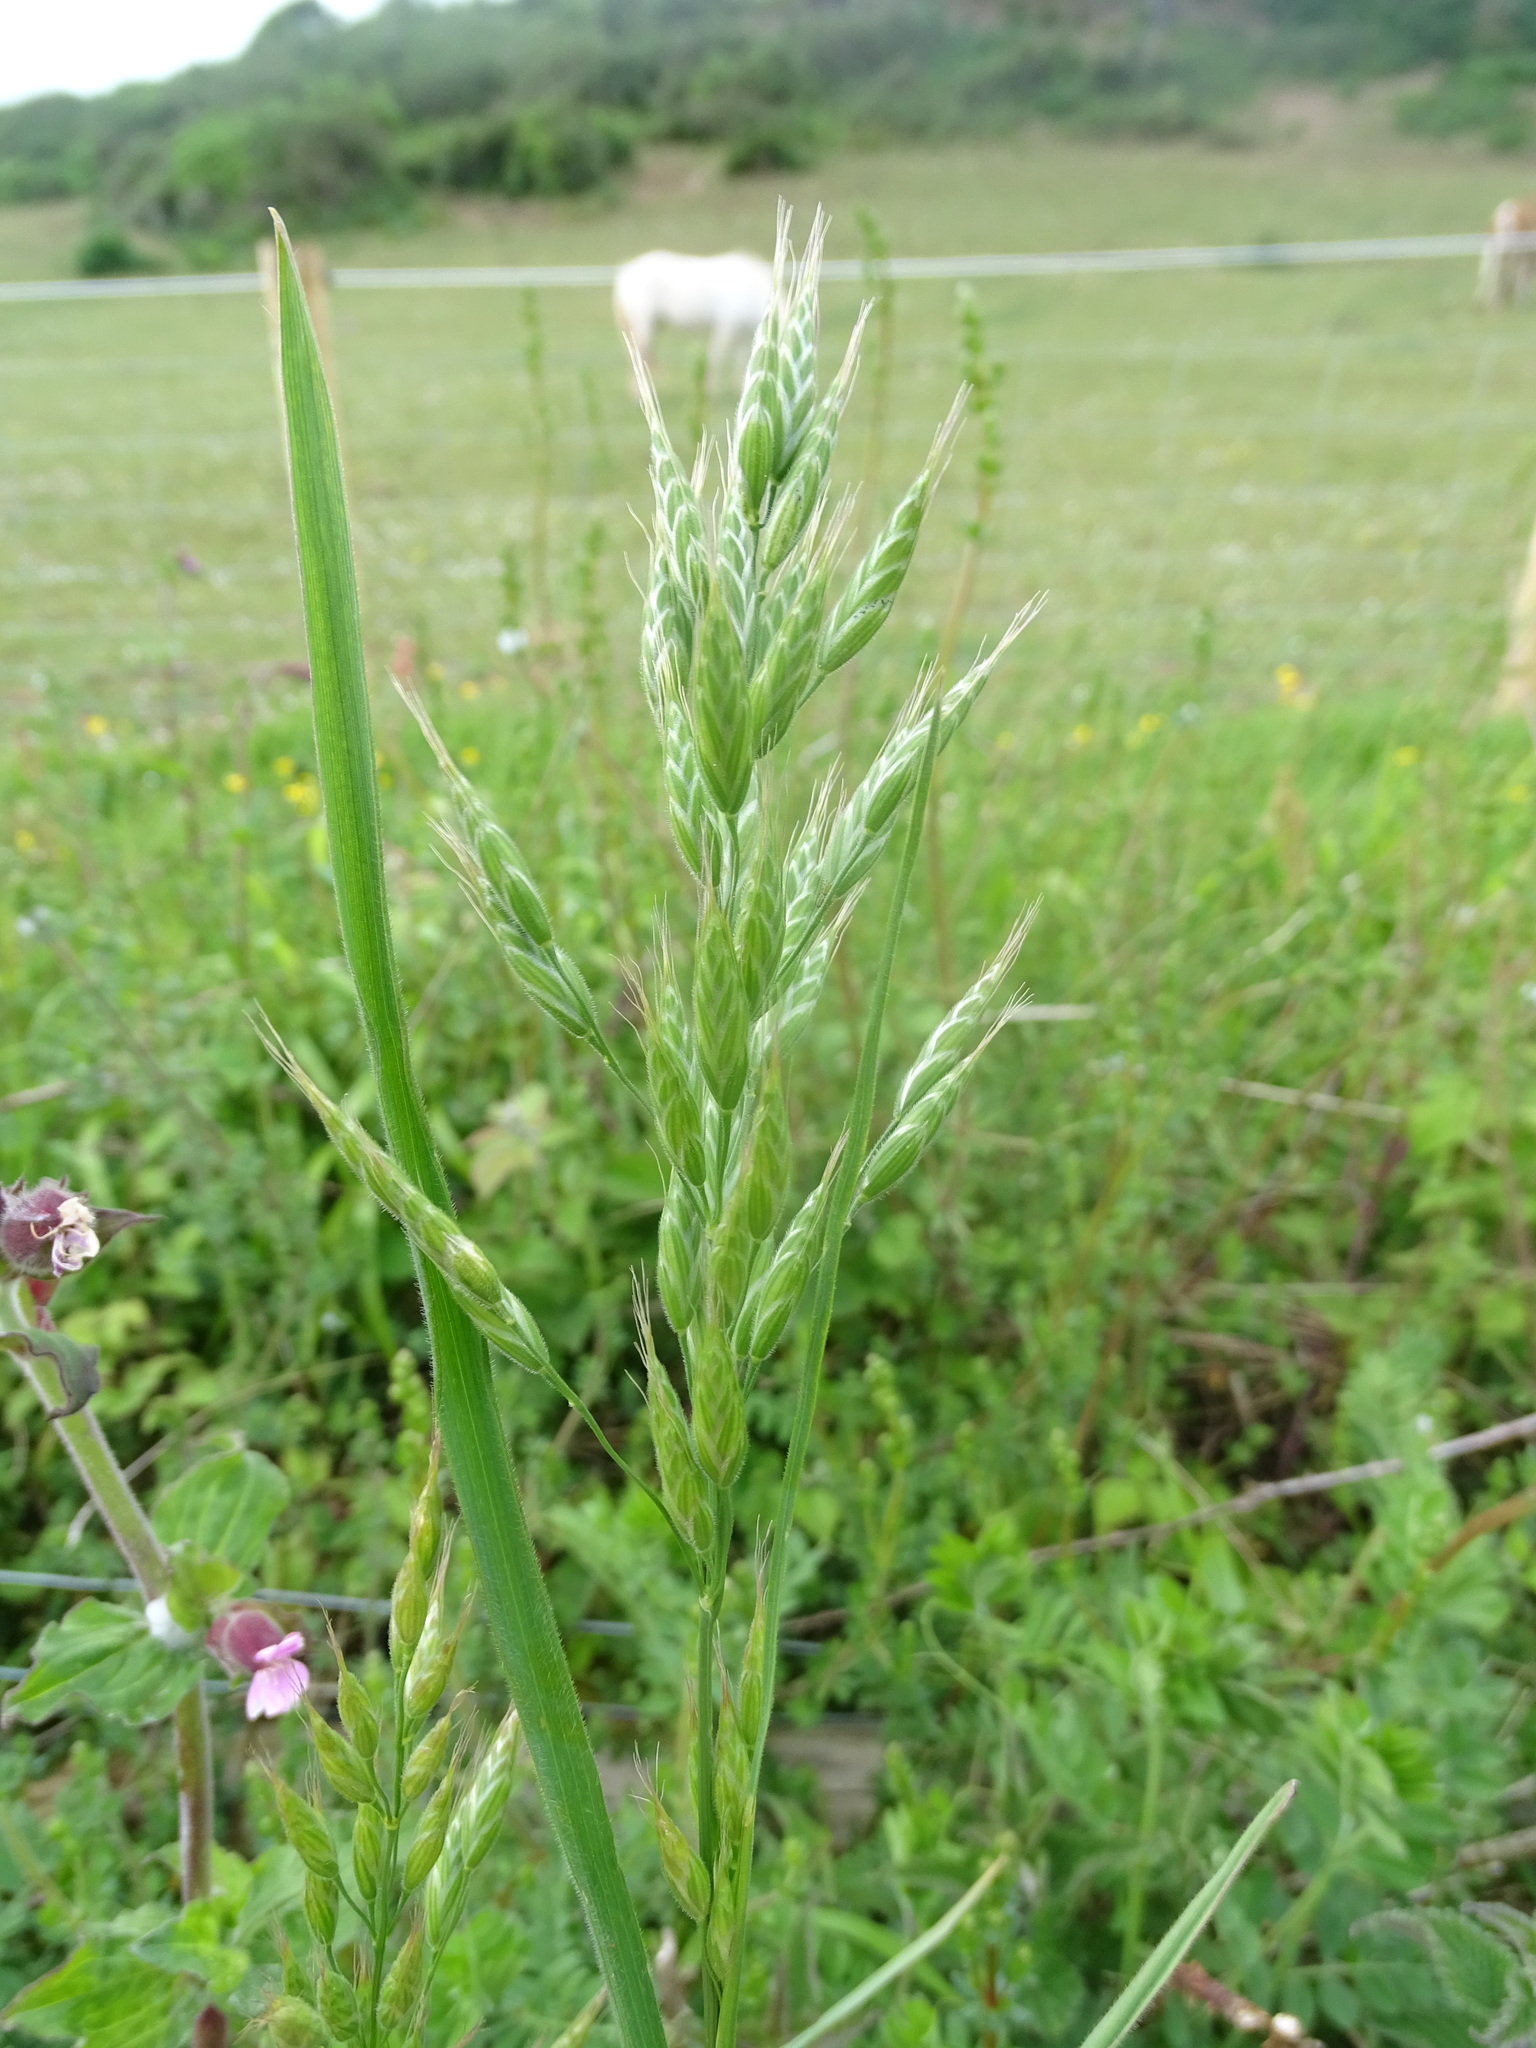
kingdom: Plantae
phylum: Tracheophyta
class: Liliopsida
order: Poales
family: Poaceae
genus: Bromus
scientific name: Bromus hordeaceus
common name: Soft brome
